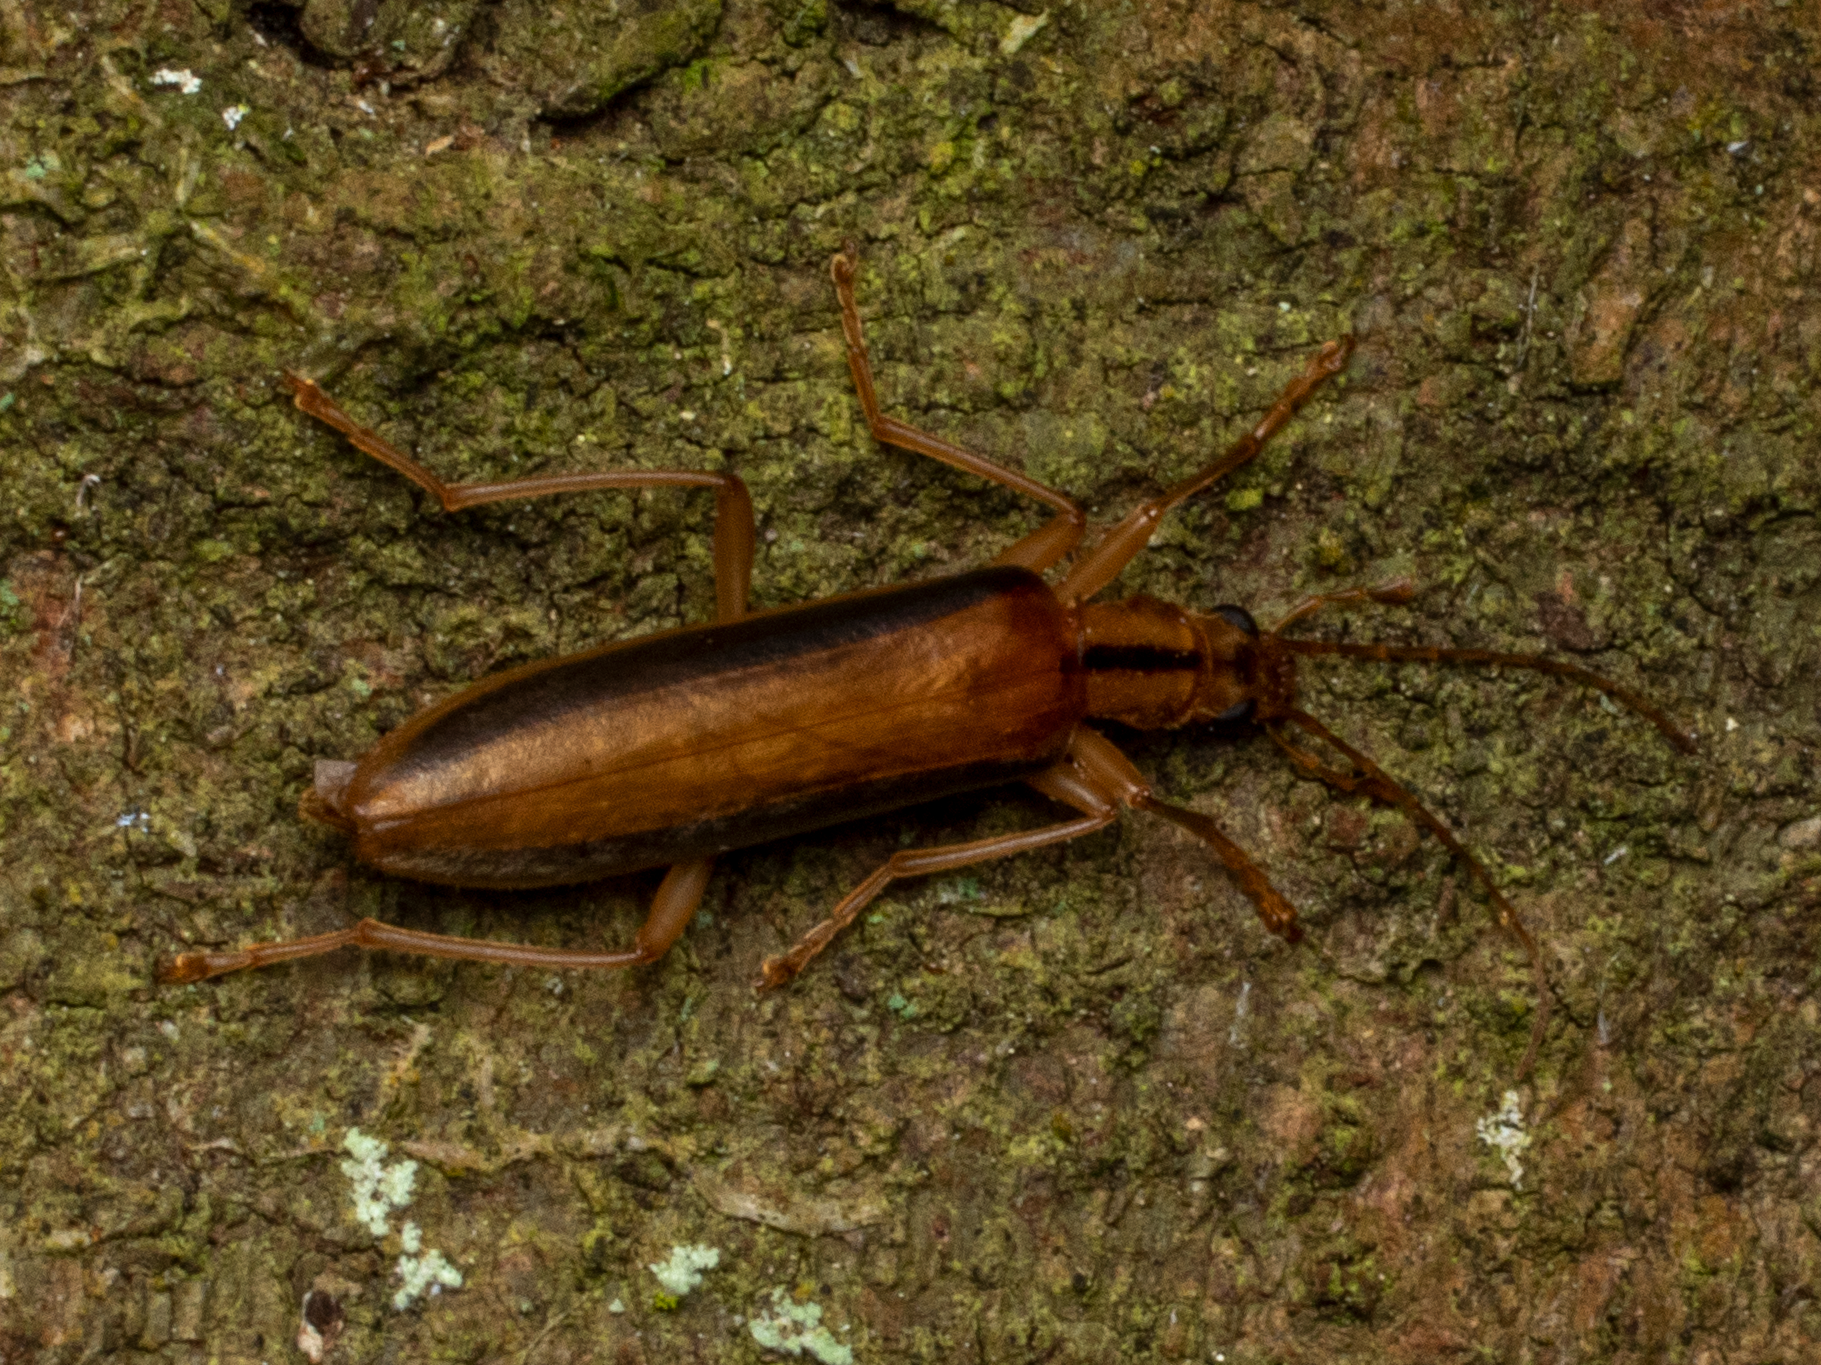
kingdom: Animalia
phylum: Arthropoda
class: Insecta
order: Coleoptera
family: Oedemeridae
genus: Thelyphassa
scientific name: Thelyphassa
